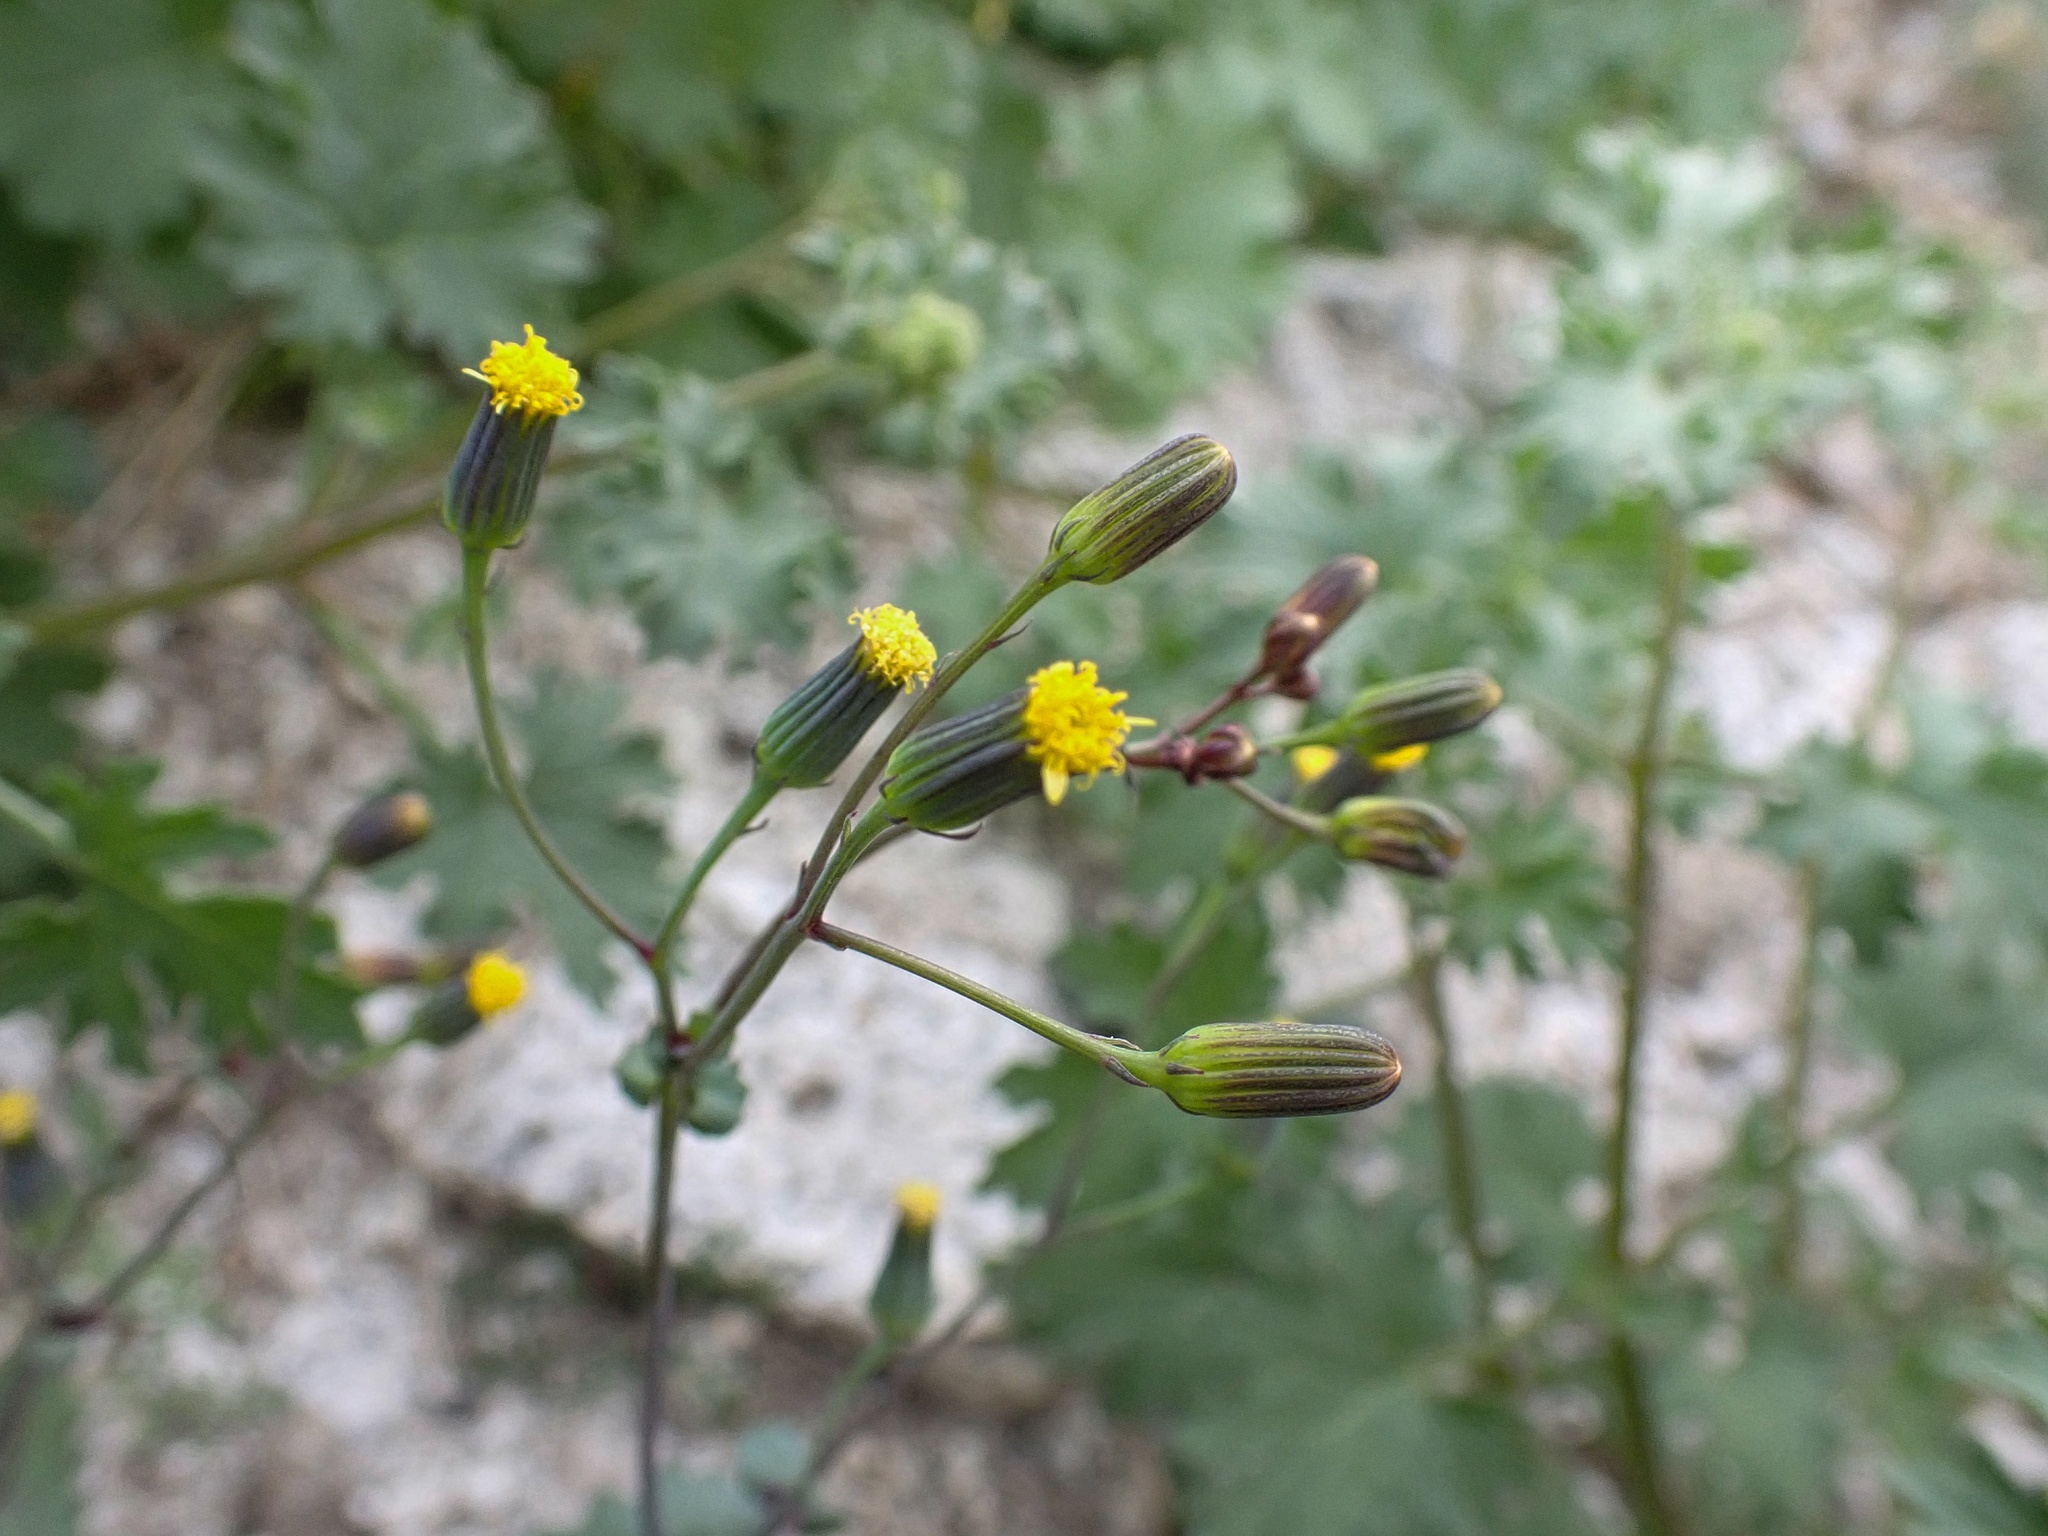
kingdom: Plantae
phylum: Tracheophyta
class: Magnoliopsida
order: Asterales
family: Asteraceae
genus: Senecio
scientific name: Senecio mohavensis
